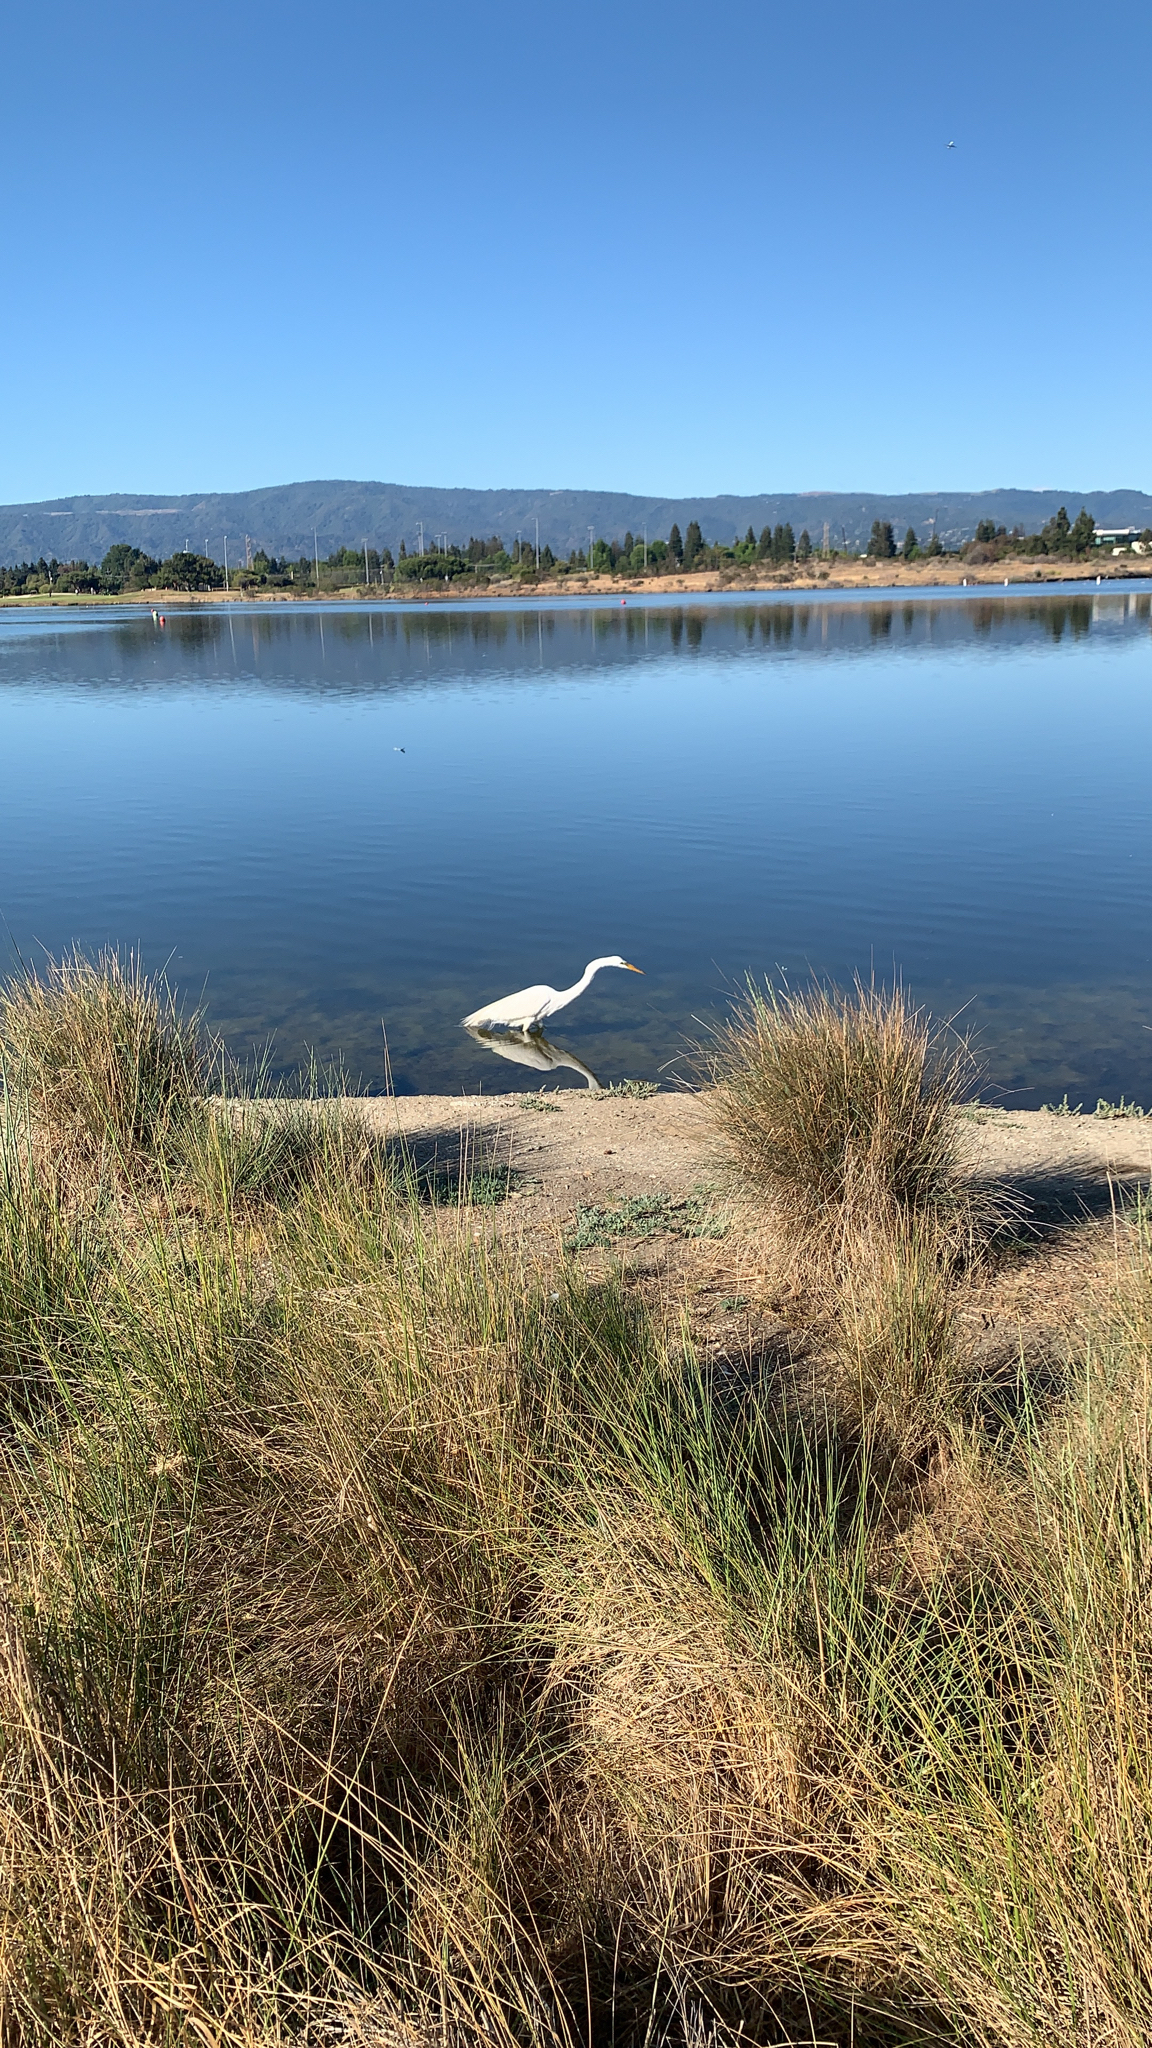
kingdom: Animalia
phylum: Chordata
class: Aves
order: Pelecaniformes
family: Ardeidae
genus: Ardea
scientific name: Ardea alba
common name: Great egret
